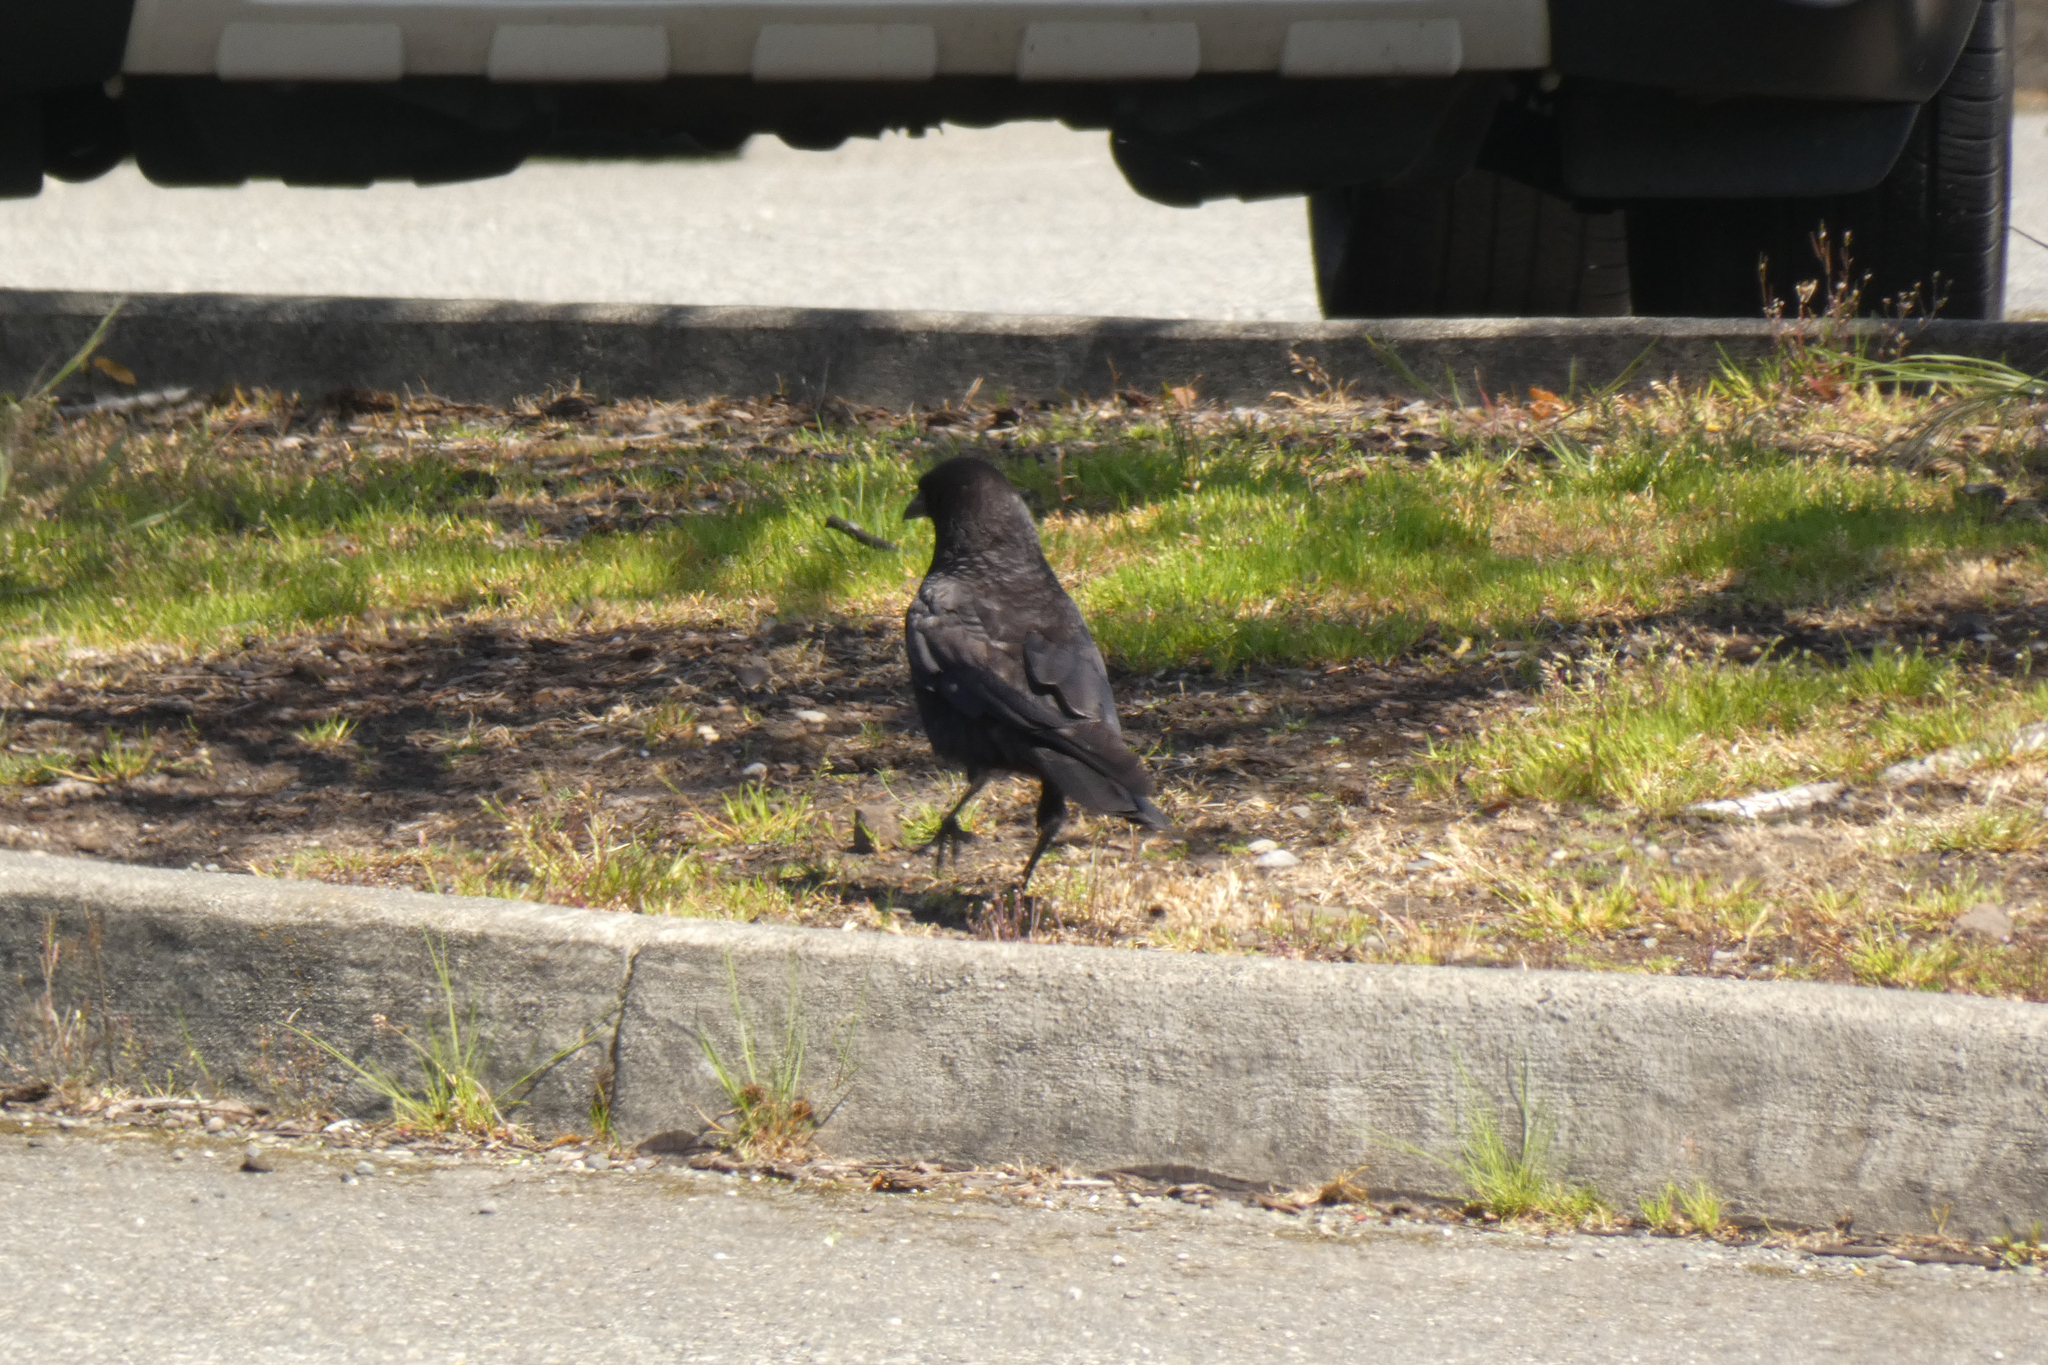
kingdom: Animalia
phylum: Chordata
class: Aves
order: Passeriformes
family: Corvidae
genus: Corvus
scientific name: Corvus brachyrhynchos
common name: American crow
